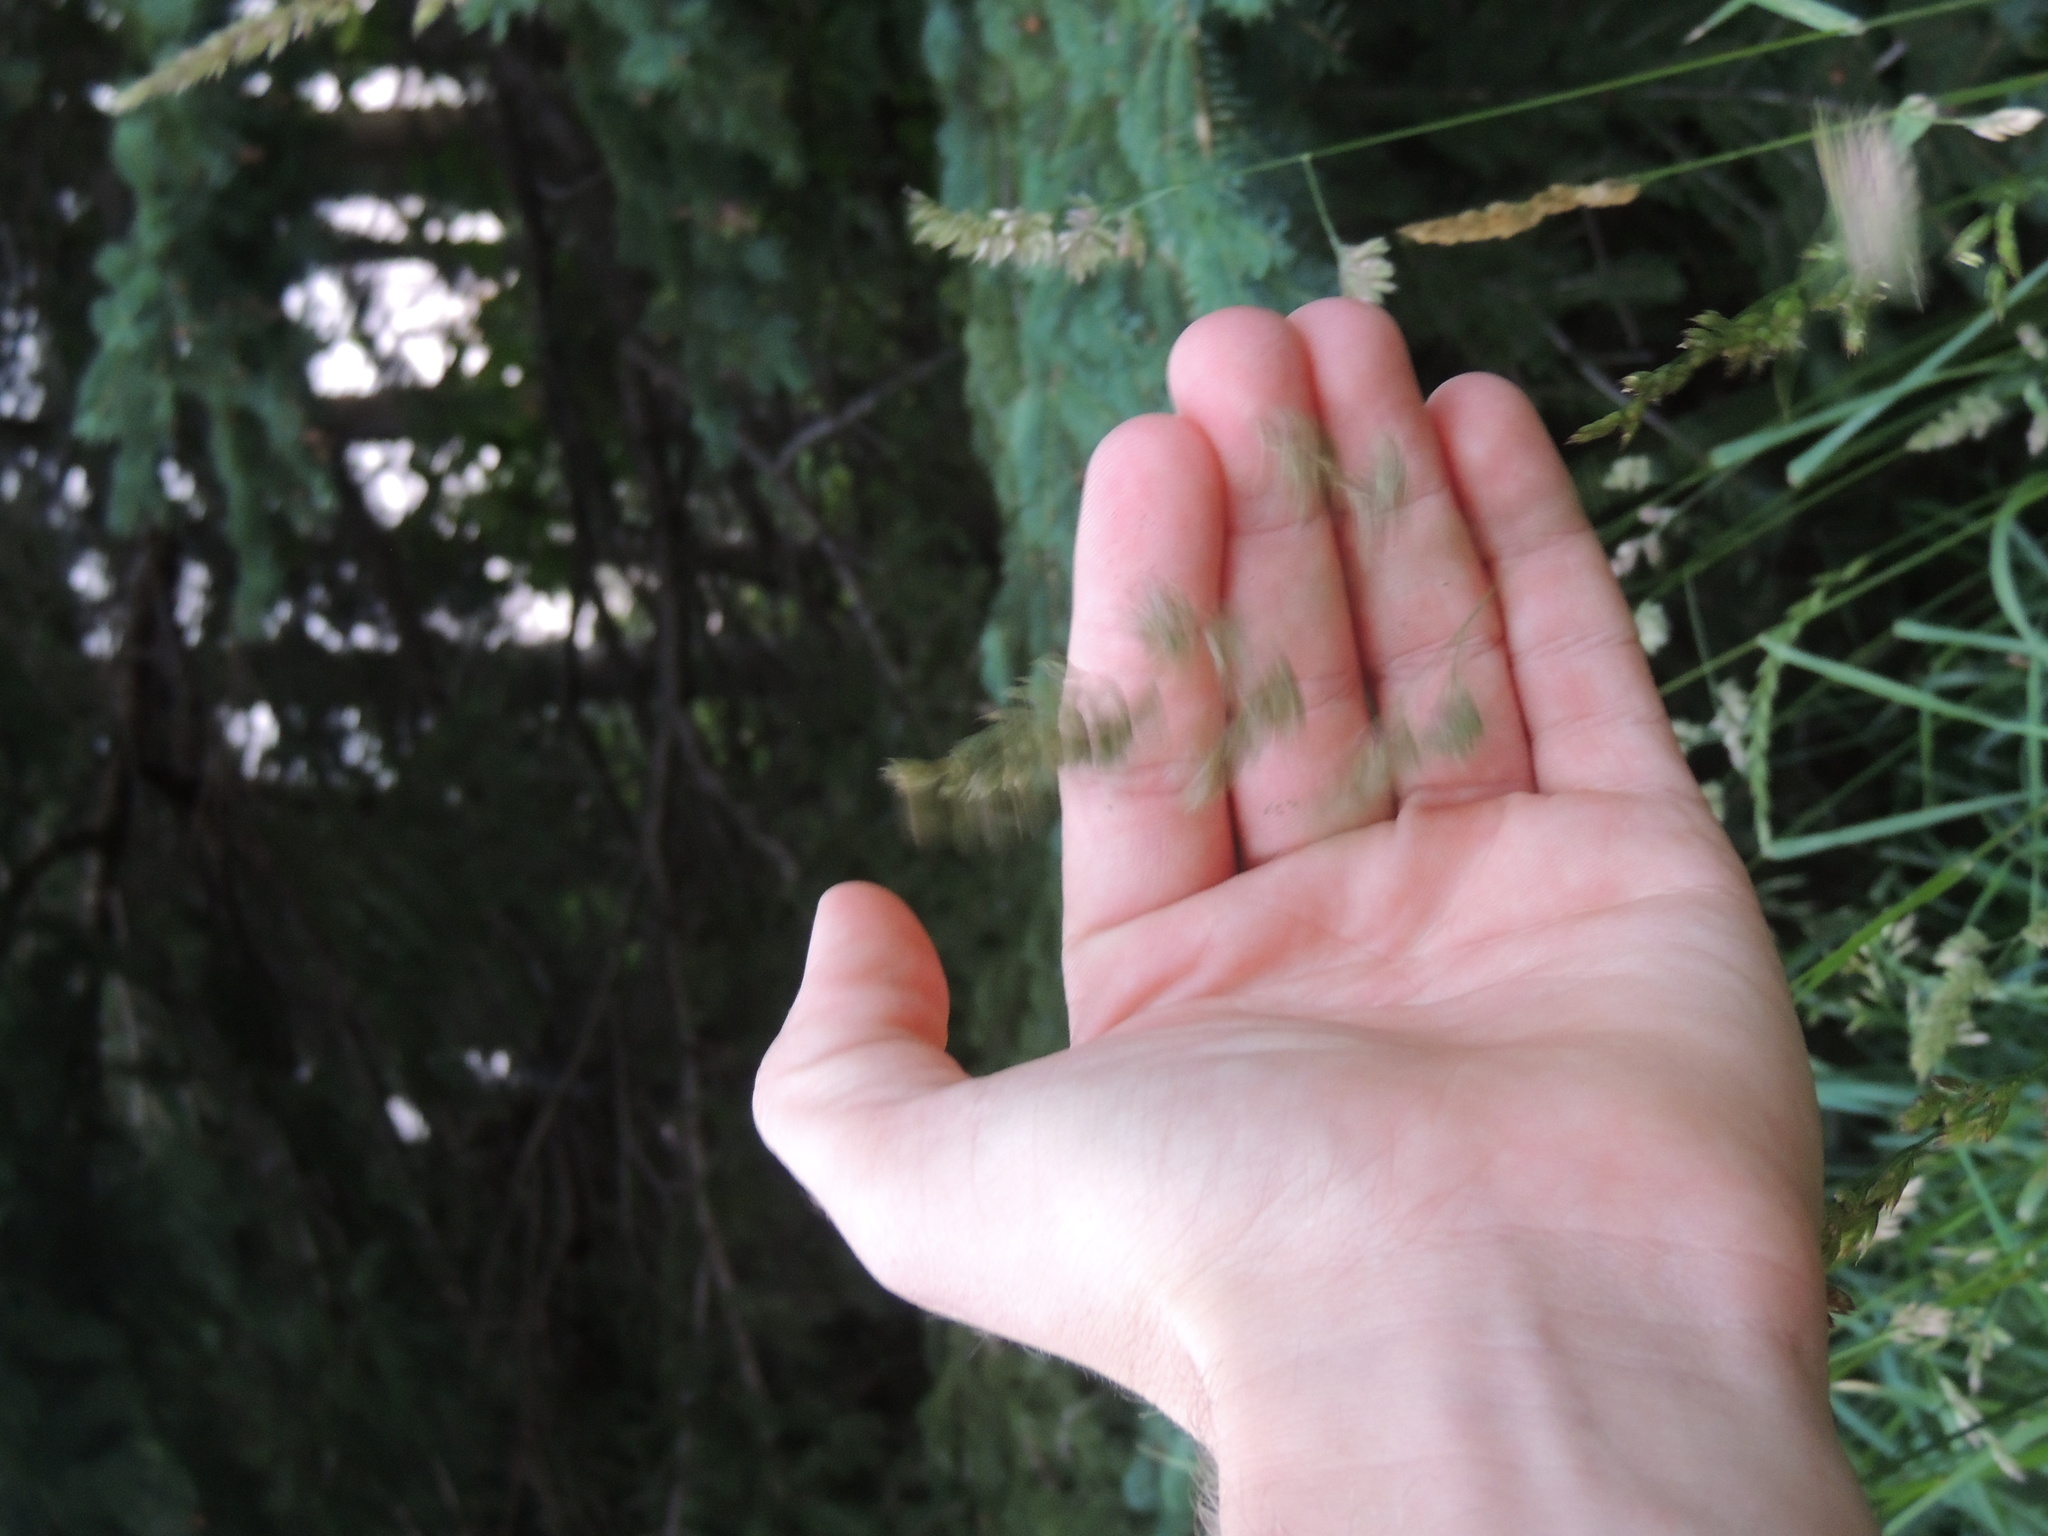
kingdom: Plantae
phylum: Tracheophyta
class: Liliopsida
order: Poales
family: Poaceae
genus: Dactylis
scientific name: Dactylis glomerata
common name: Orchardgrass
